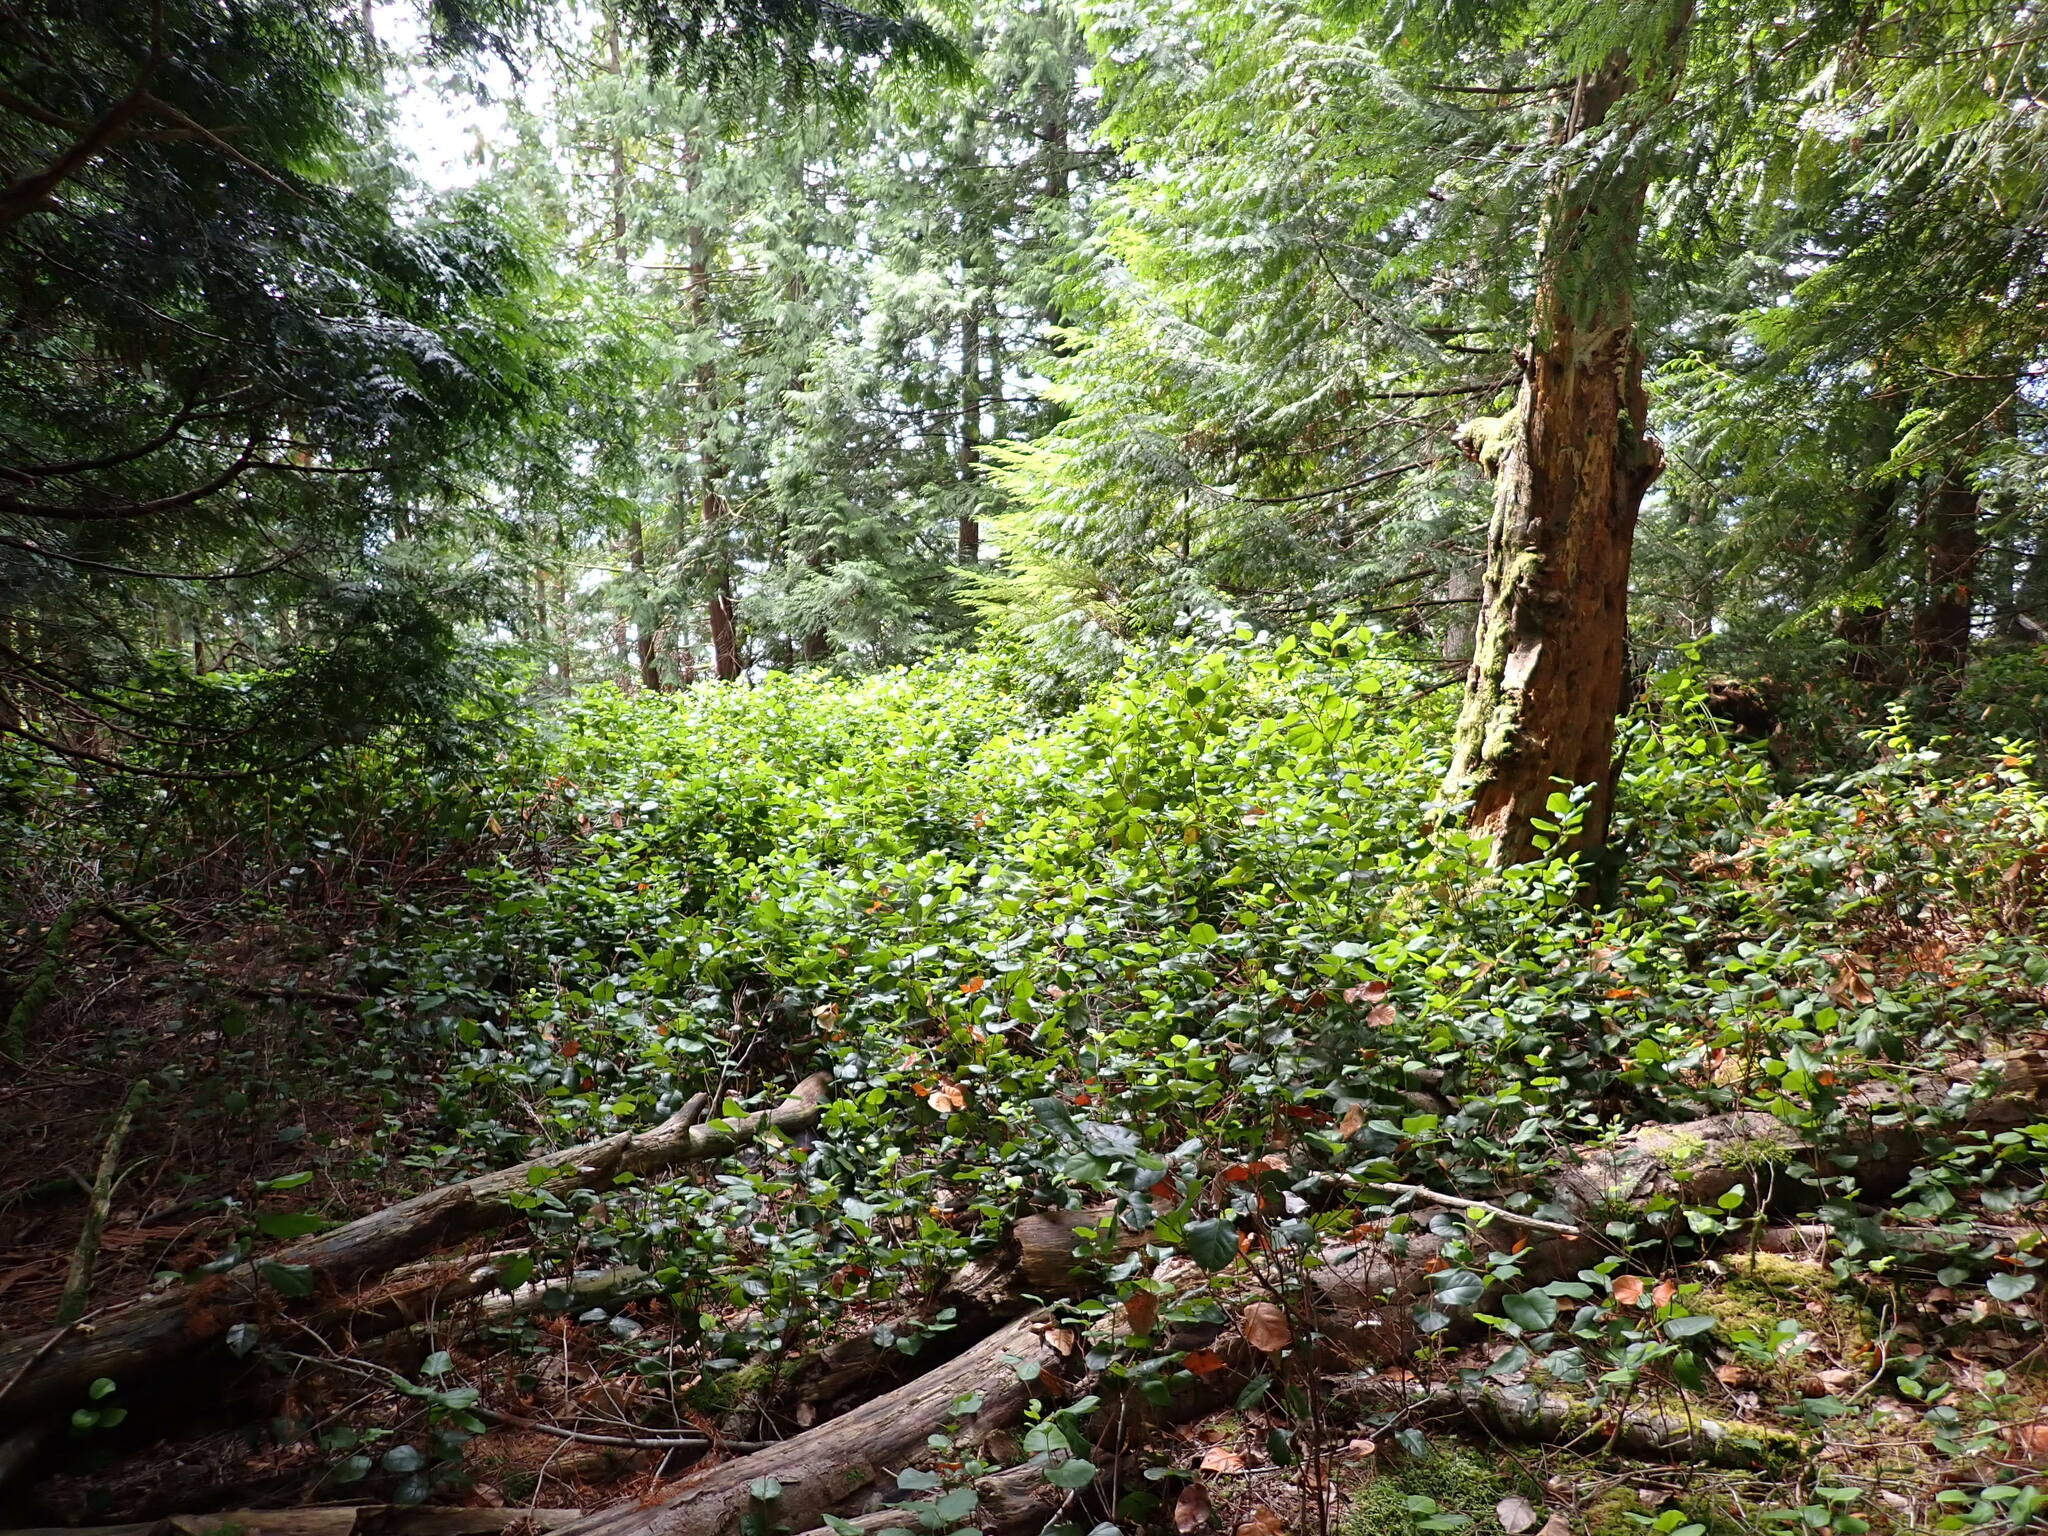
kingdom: Plantae
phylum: Tracheophyta
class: Magnoliopsida
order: Ericales
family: Ericaceae
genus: Gaultheria
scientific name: Gaultheria shallon
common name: Shallon
